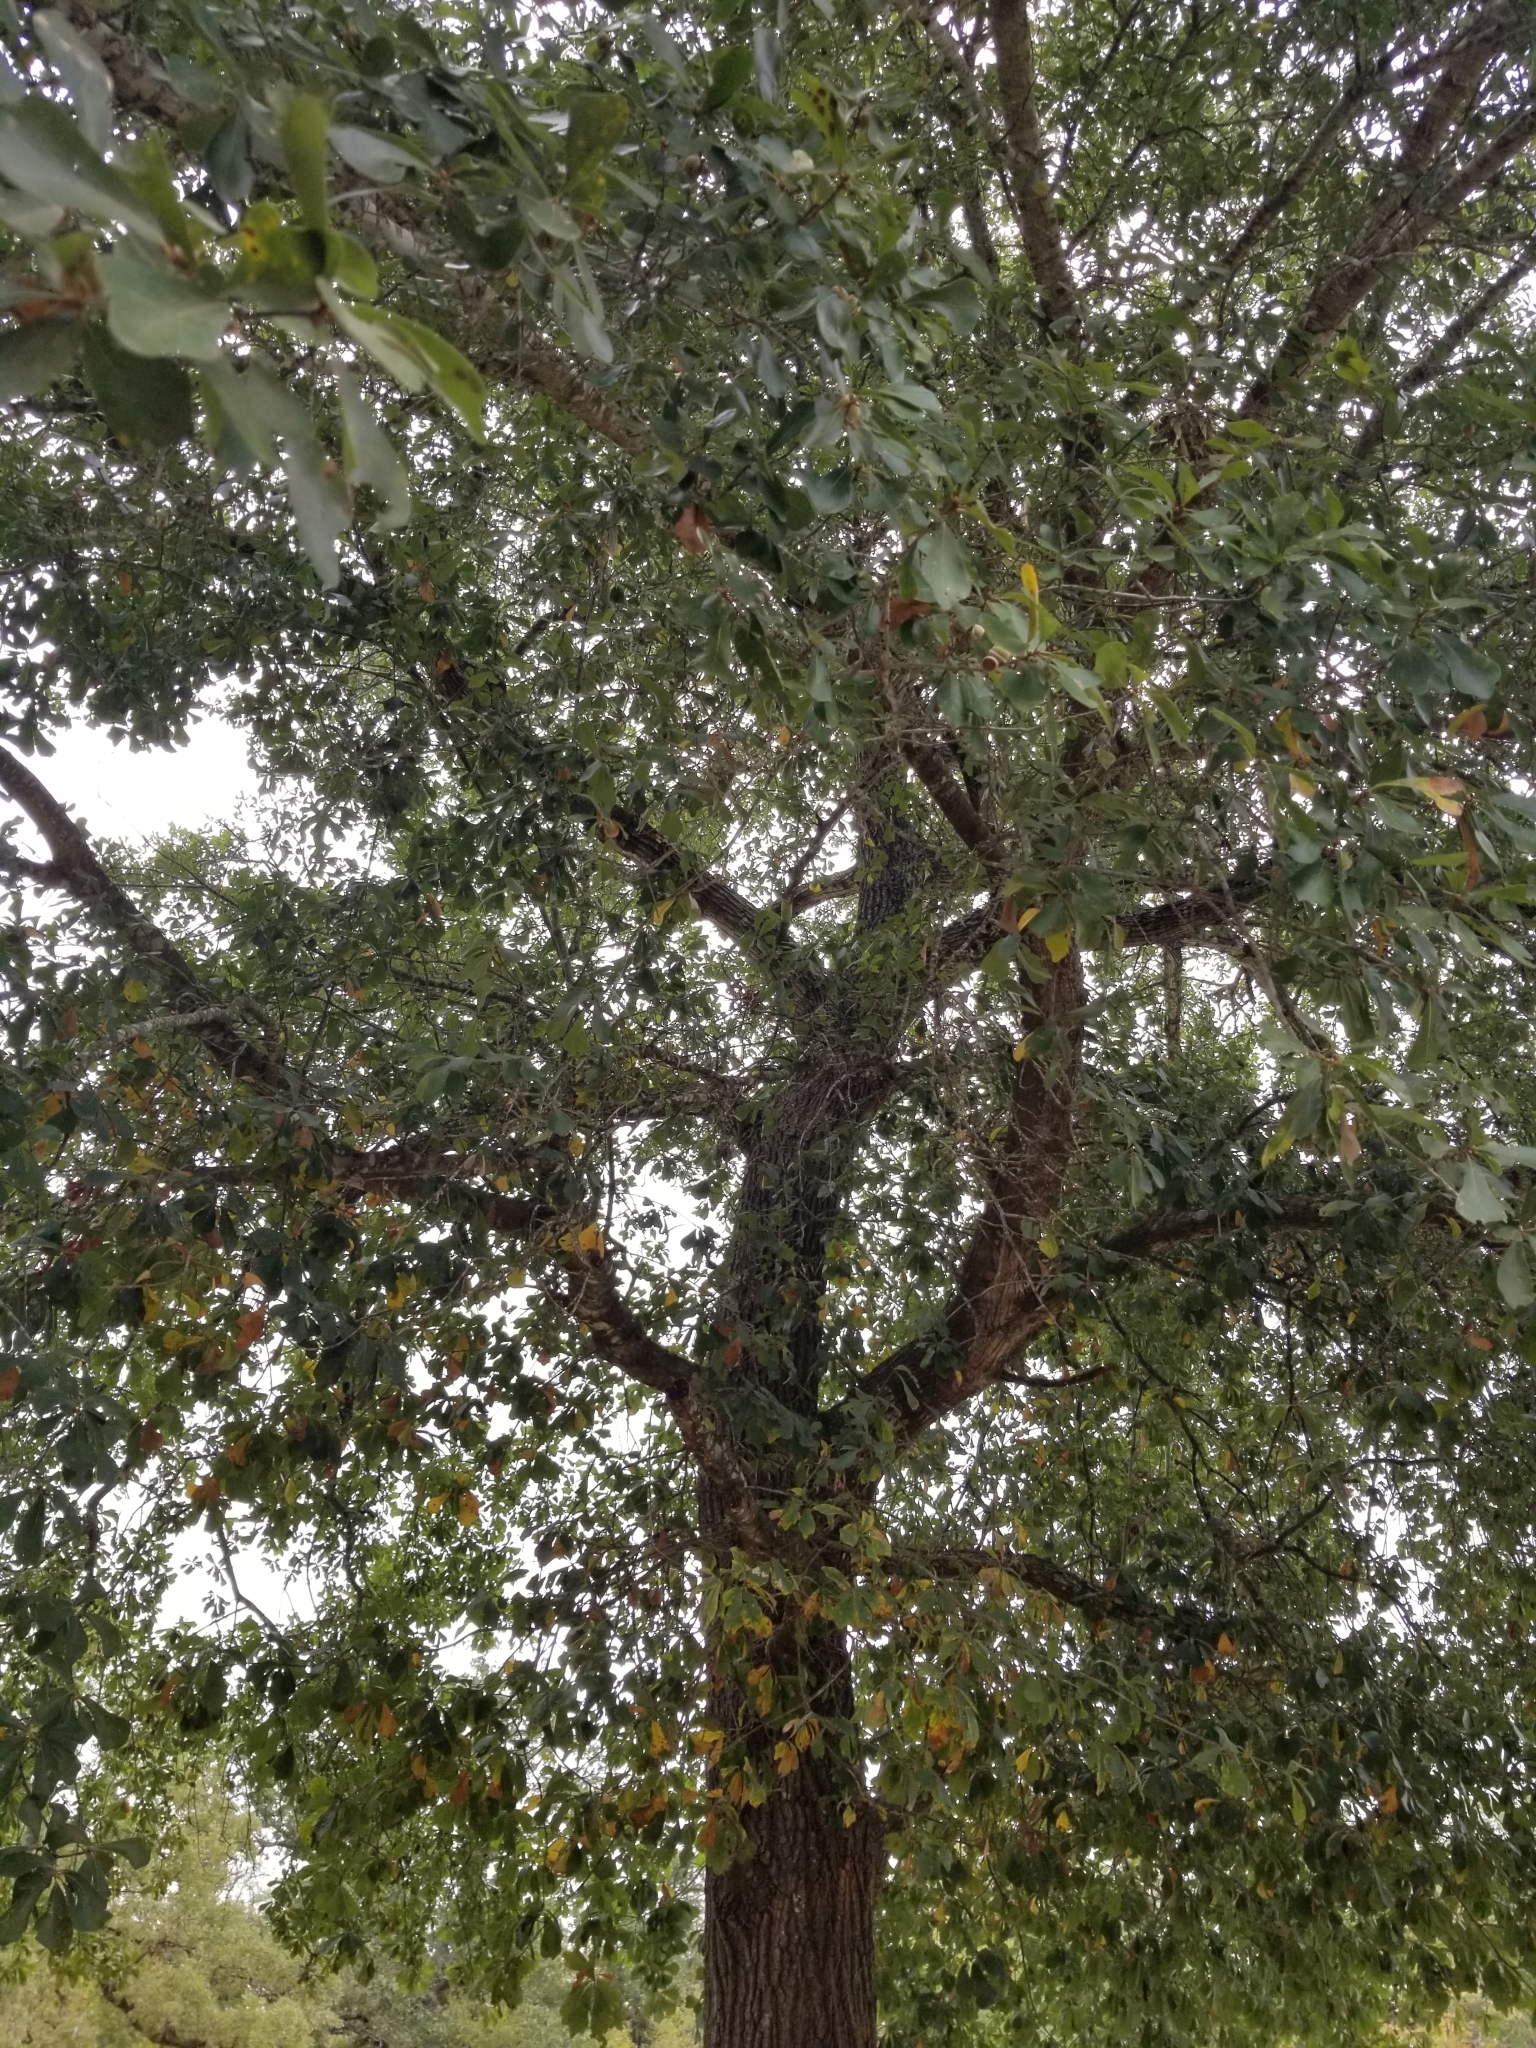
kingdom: Plantae
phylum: Tracheophyta
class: Magnoliopsida
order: Fagales
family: Fagaceae
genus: Quercus
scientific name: Quercus nigra
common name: Water oak
